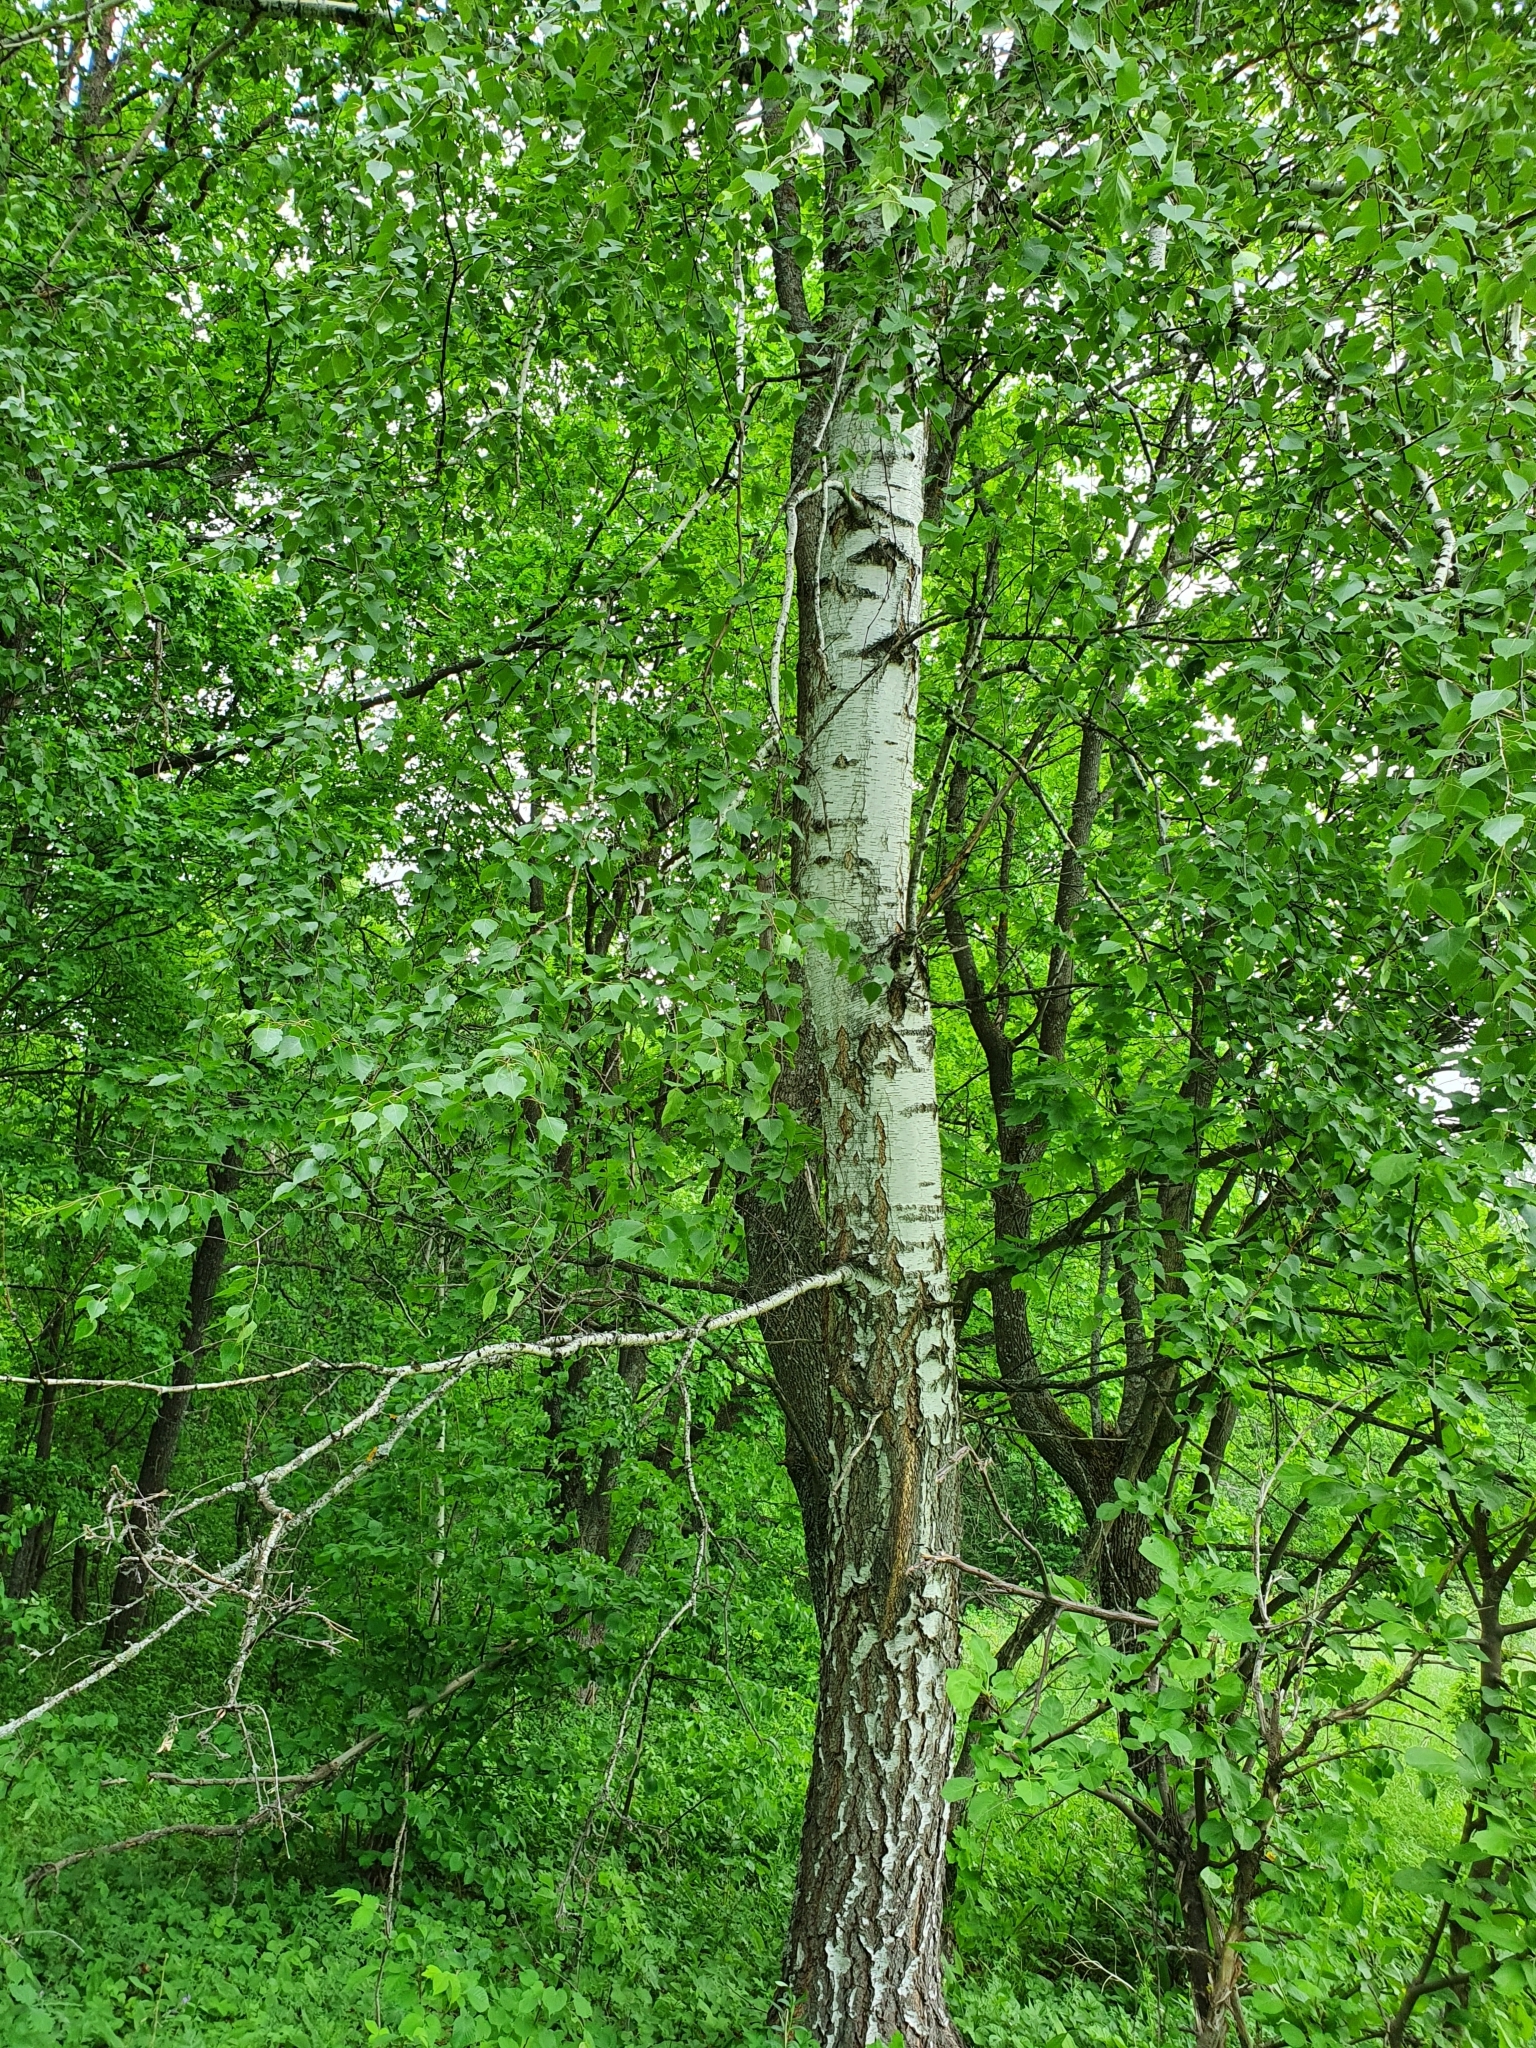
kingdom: Plantae
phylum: Tracheophyta
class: Magnoliopsida
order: Fagales
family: Betulaceae
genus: Betula
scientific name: Betula pendula
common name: Silver birch
